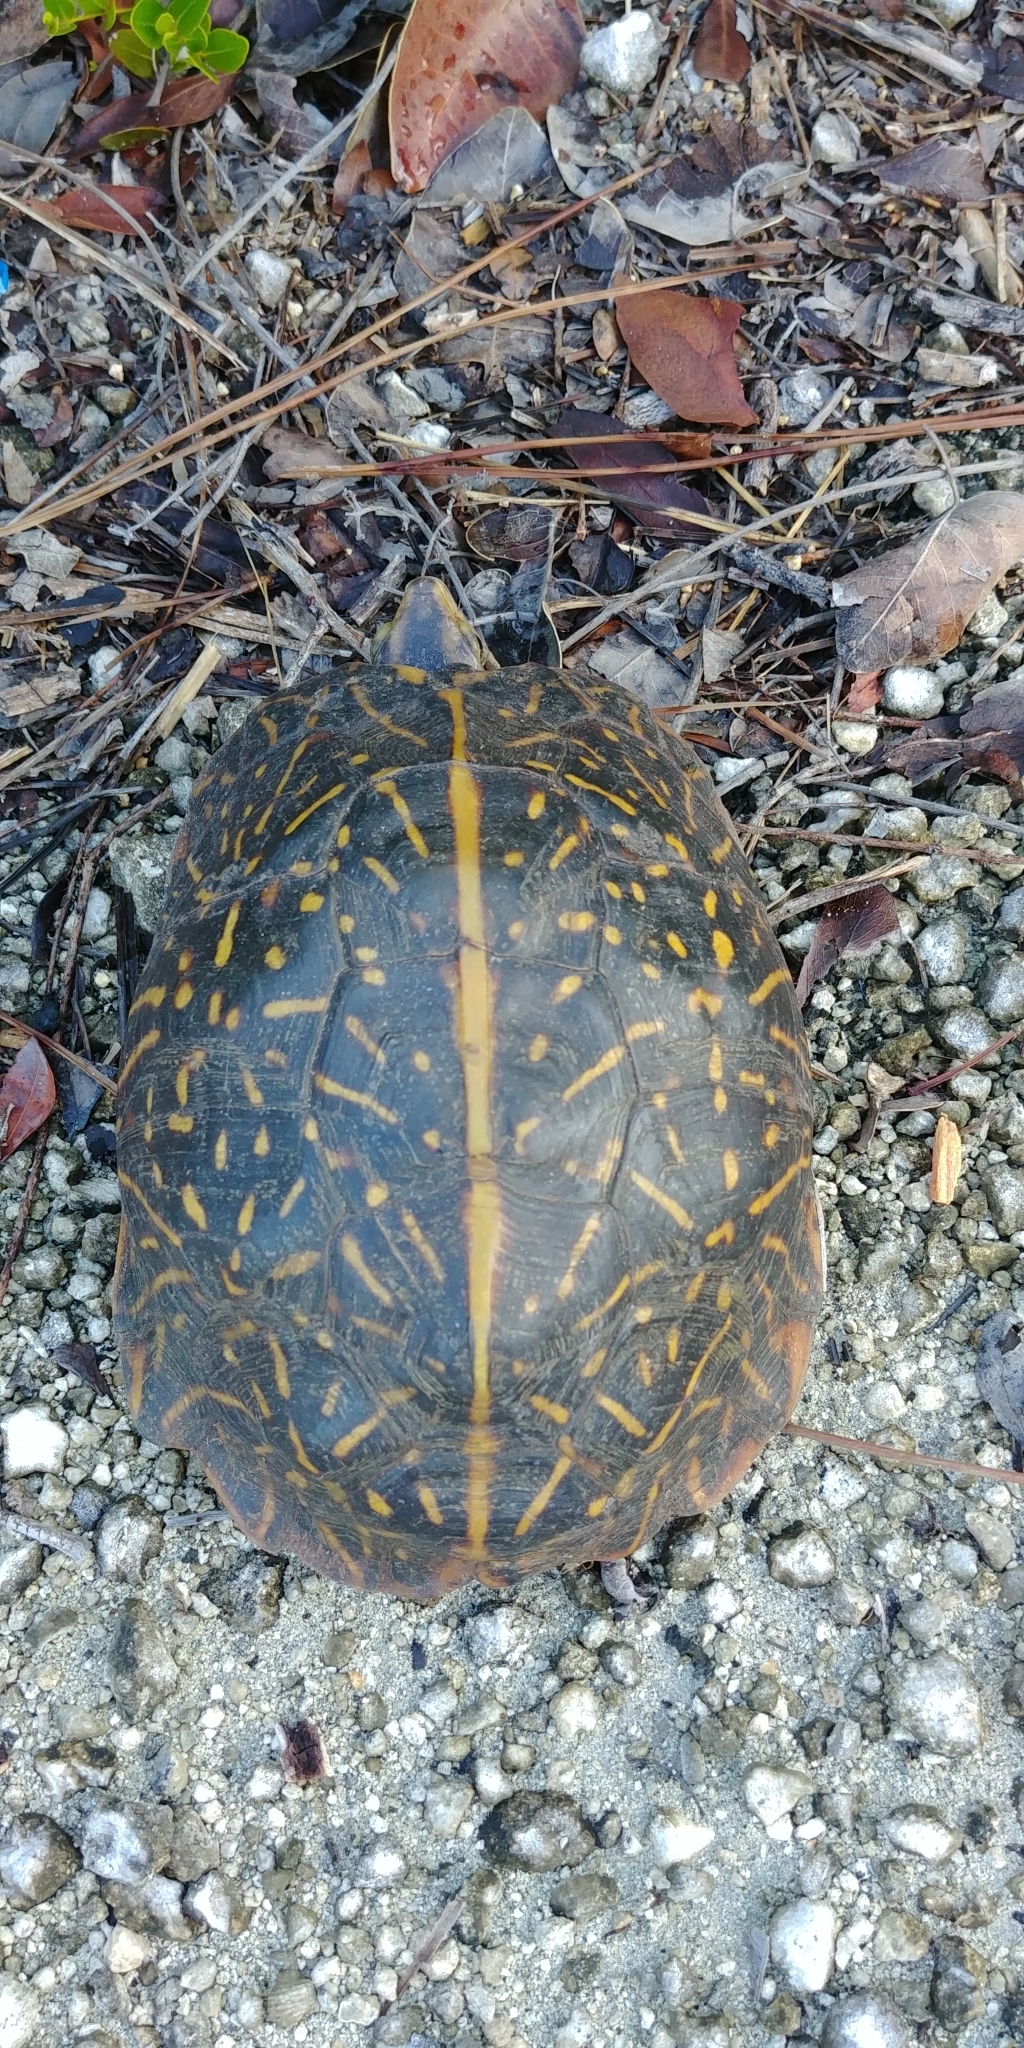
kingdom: Animalia
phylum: Chordata
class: Testudines
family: Emydidae
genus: Terrapene
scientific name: Terrapene carolina
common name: Common box turtle
